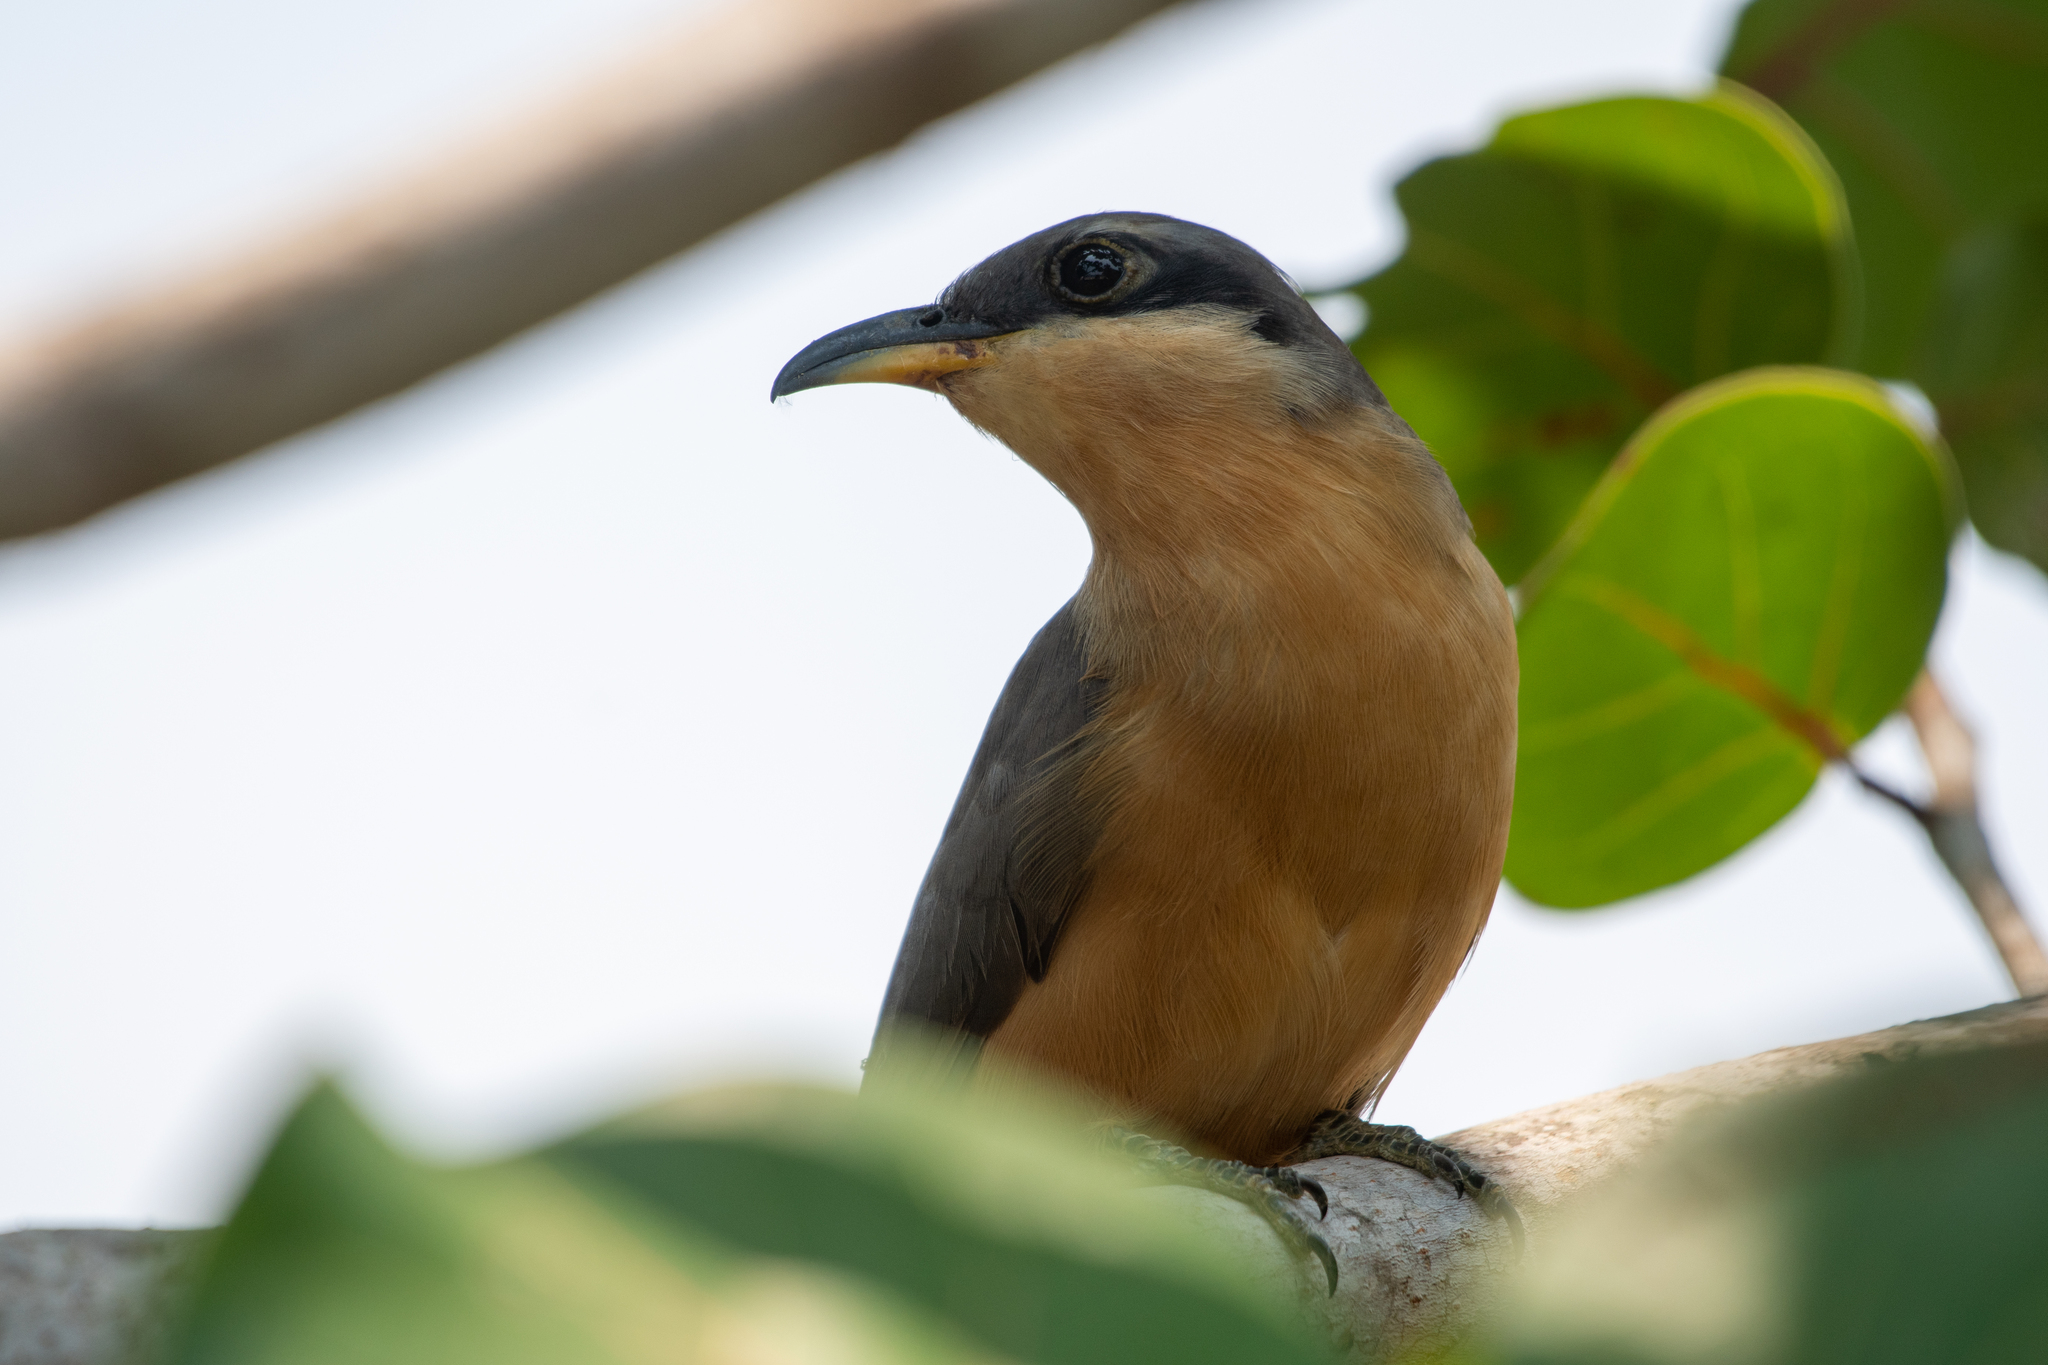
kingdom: Animalia
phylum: Chordata
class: Aves
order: Cuculiformes
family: Cuculidae
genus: Coccyzus
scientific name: Coccyzus minor
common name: Mangrove cuckoo
